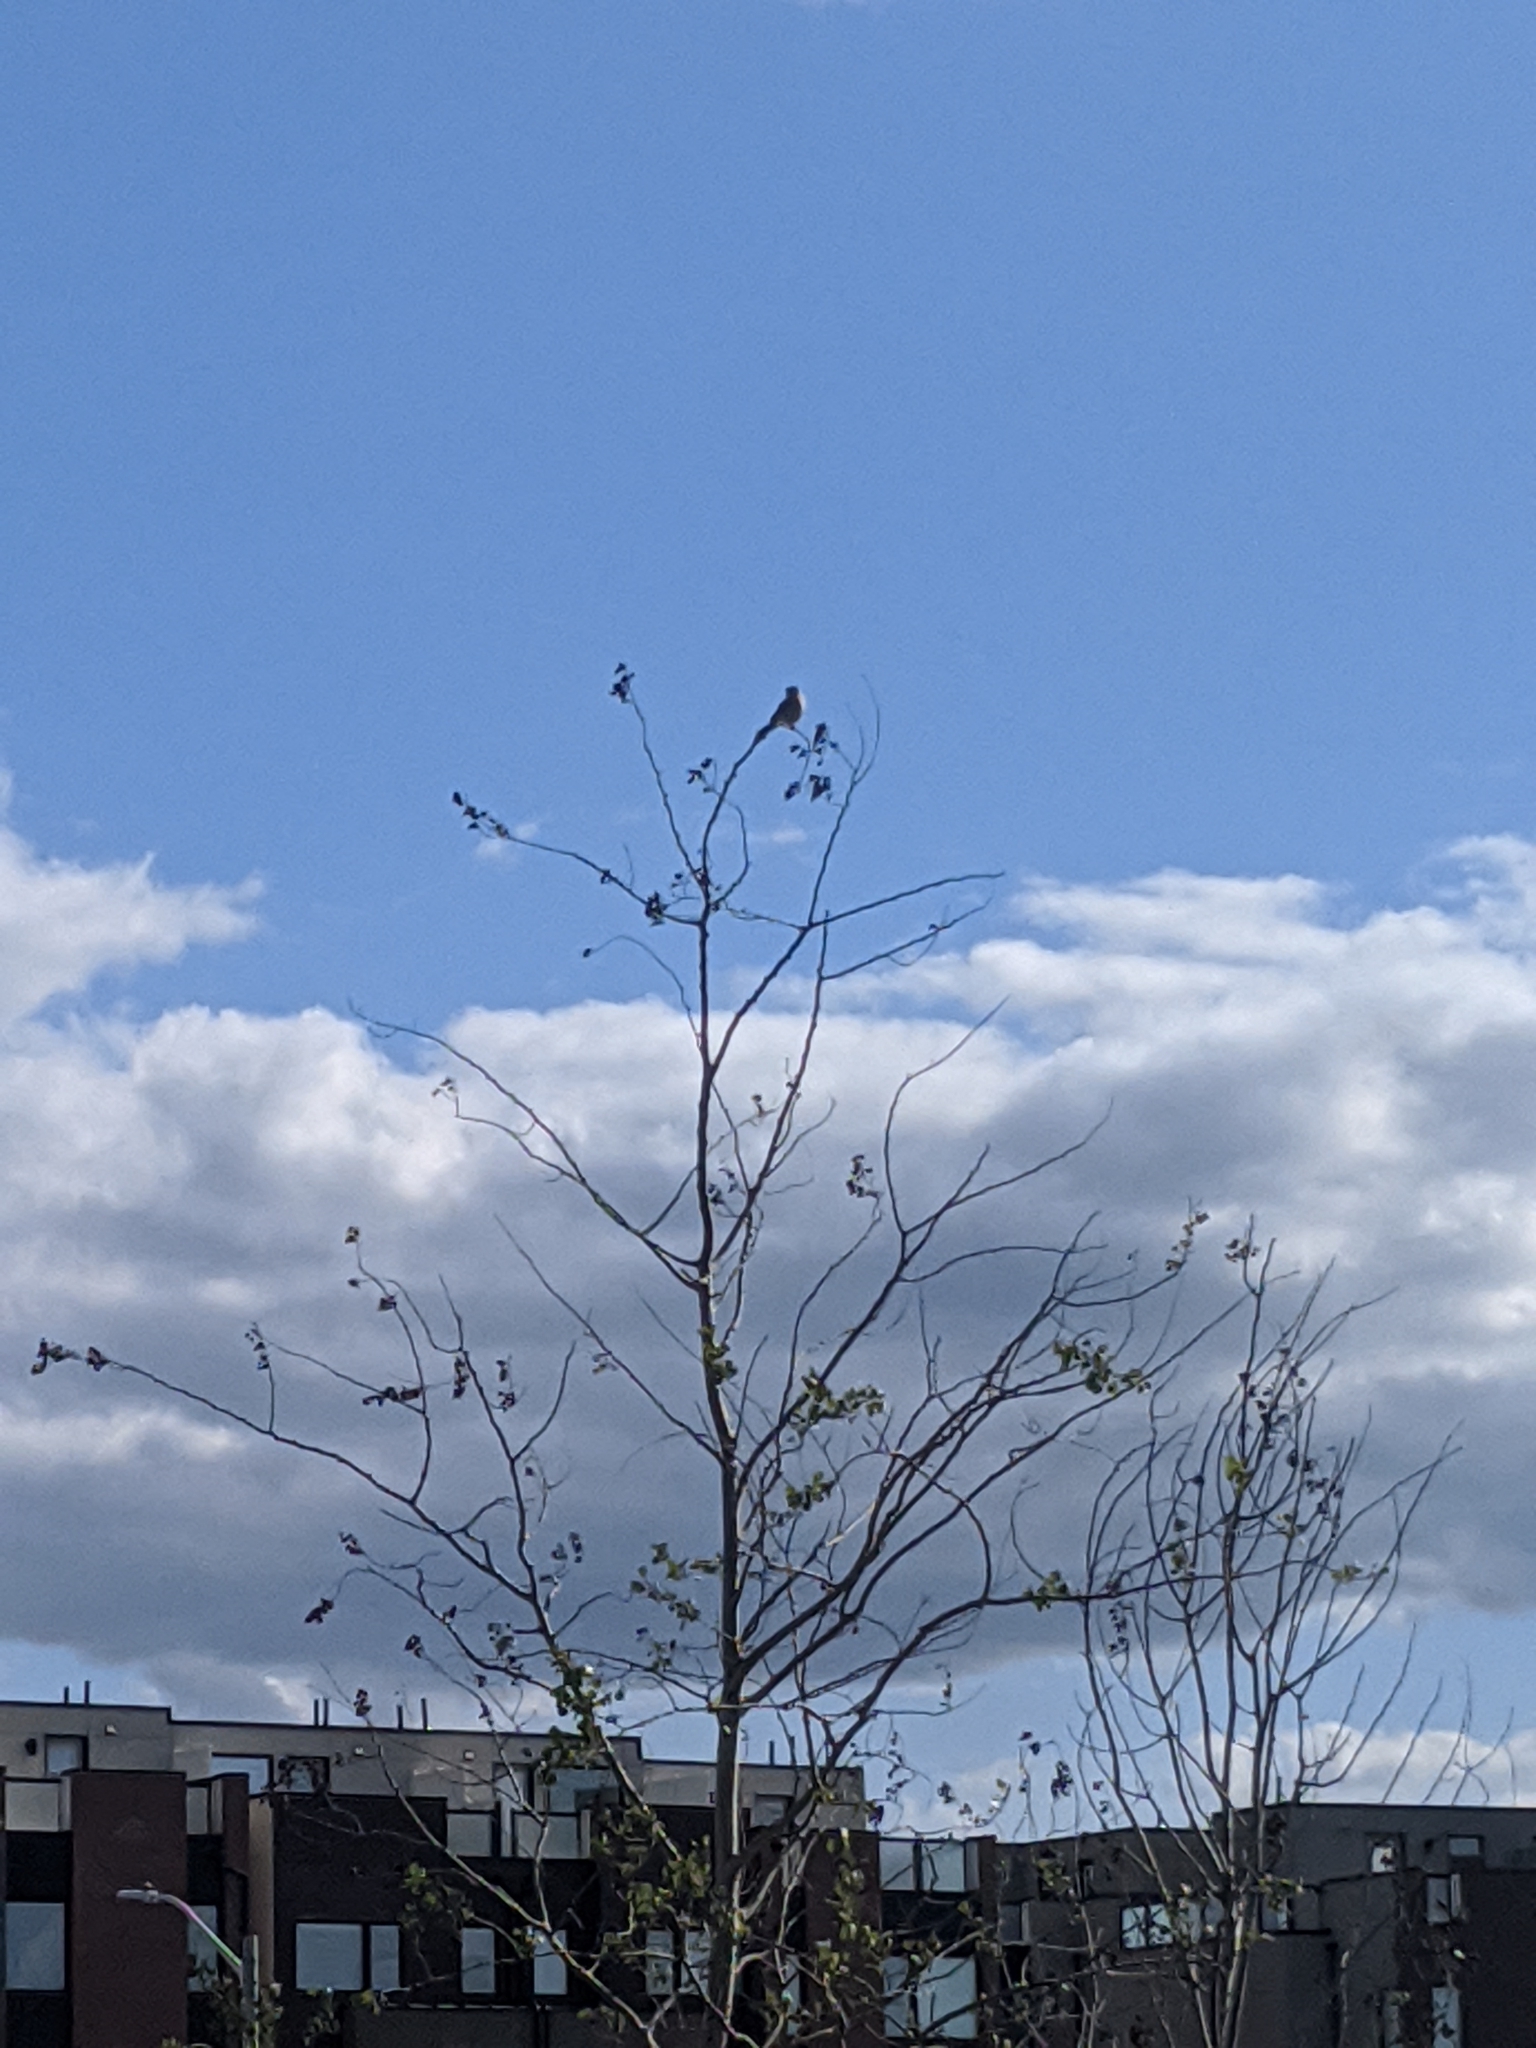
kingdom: Animalia
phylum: Chordata
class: Aves
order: Falconiformes
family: Falconidae
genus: Falco
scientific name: Falco sparverius
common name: American kestrel
